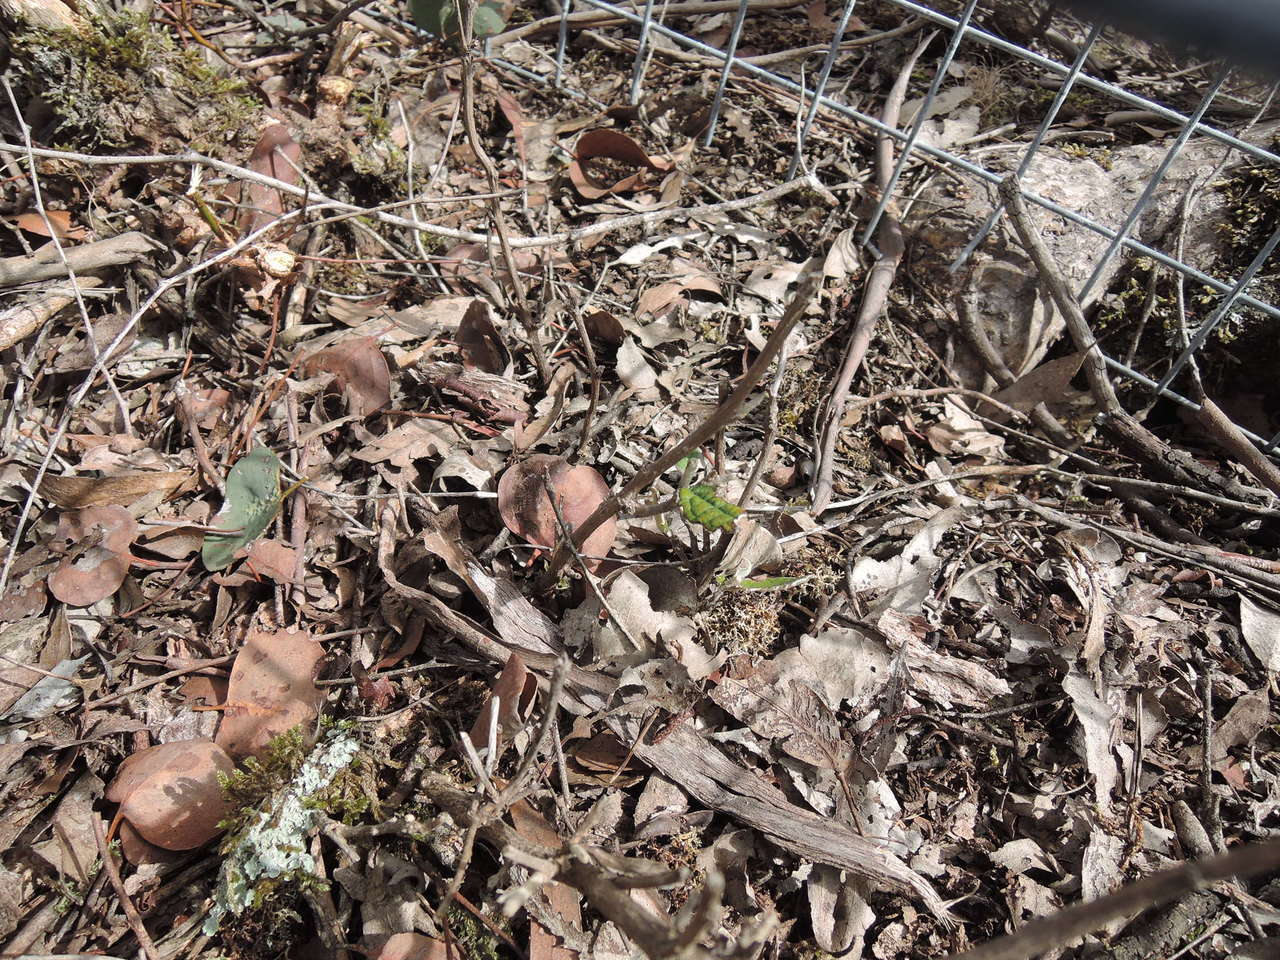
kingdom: Plantae
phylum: Tracheophyta
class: Magnoliopsida
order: Asterales
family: Asteraceae
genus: Olearia
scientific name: Olearia pannosa
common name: Velvet daisybush
